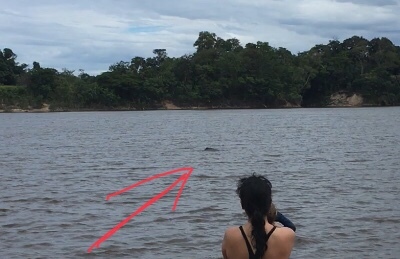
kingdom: Animalia
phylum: Chordata
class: Mammalia
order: Cetacea
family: Iniidae
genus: Inia
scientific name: Inia geoffrensis
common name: Amazon river dolphin
